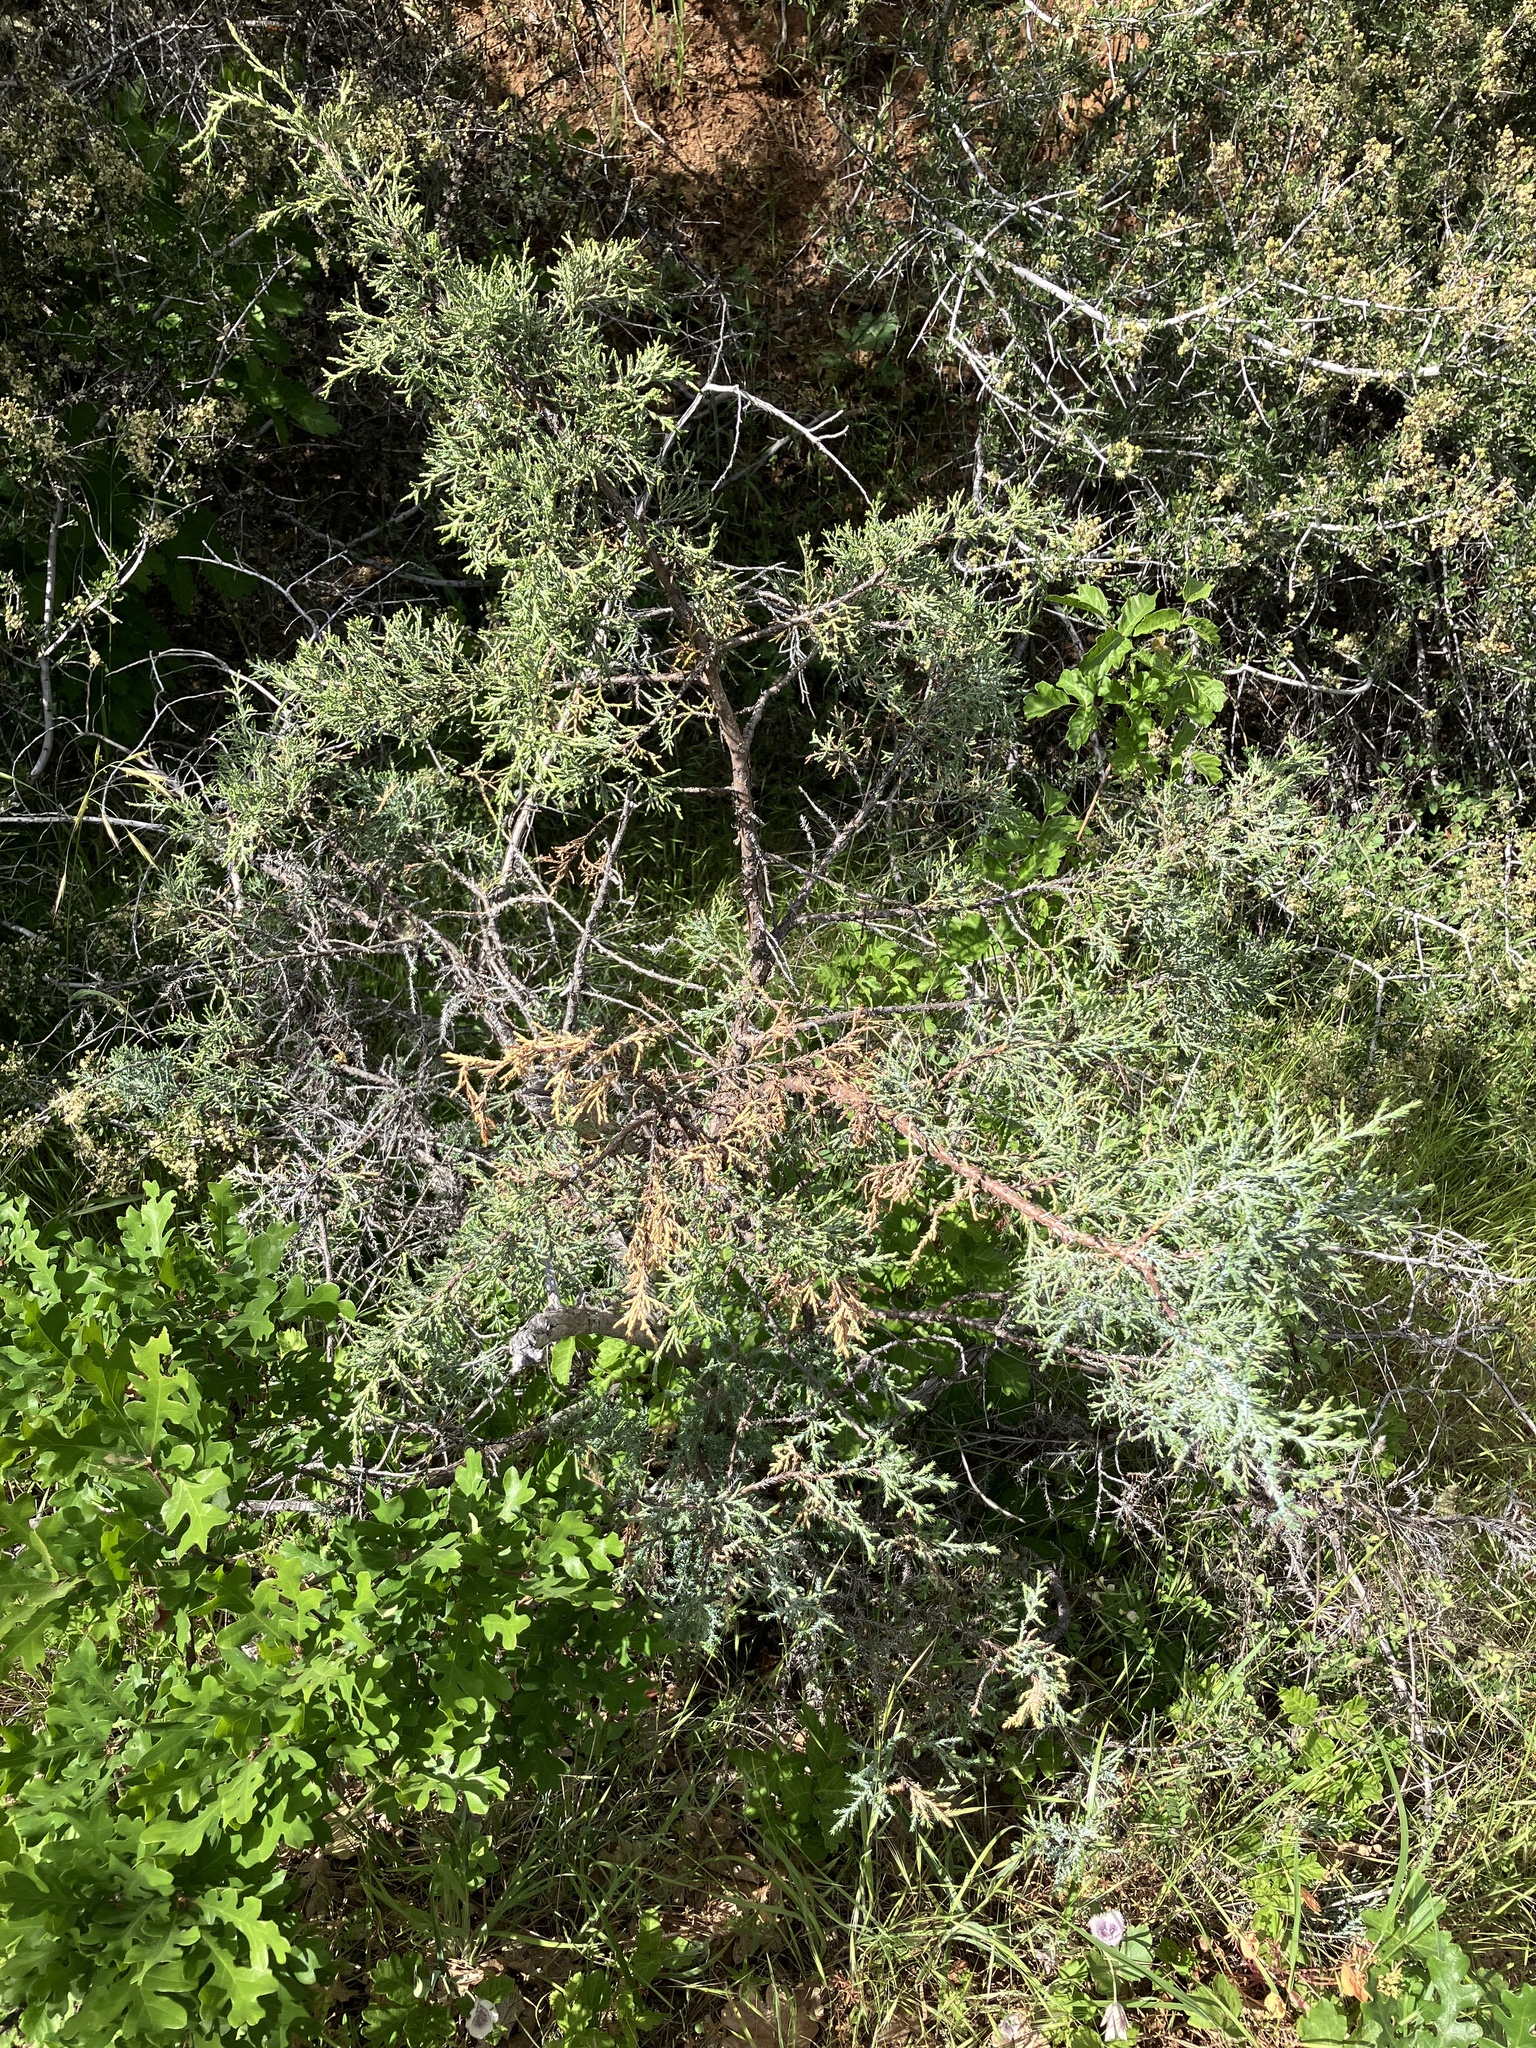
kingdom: Plantae
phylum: Tracheophyta
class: Pinopsida
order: Pinales
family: Cupressaceae
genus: Juniperus
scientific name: Juniperus occidentalis
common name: Western juniper
